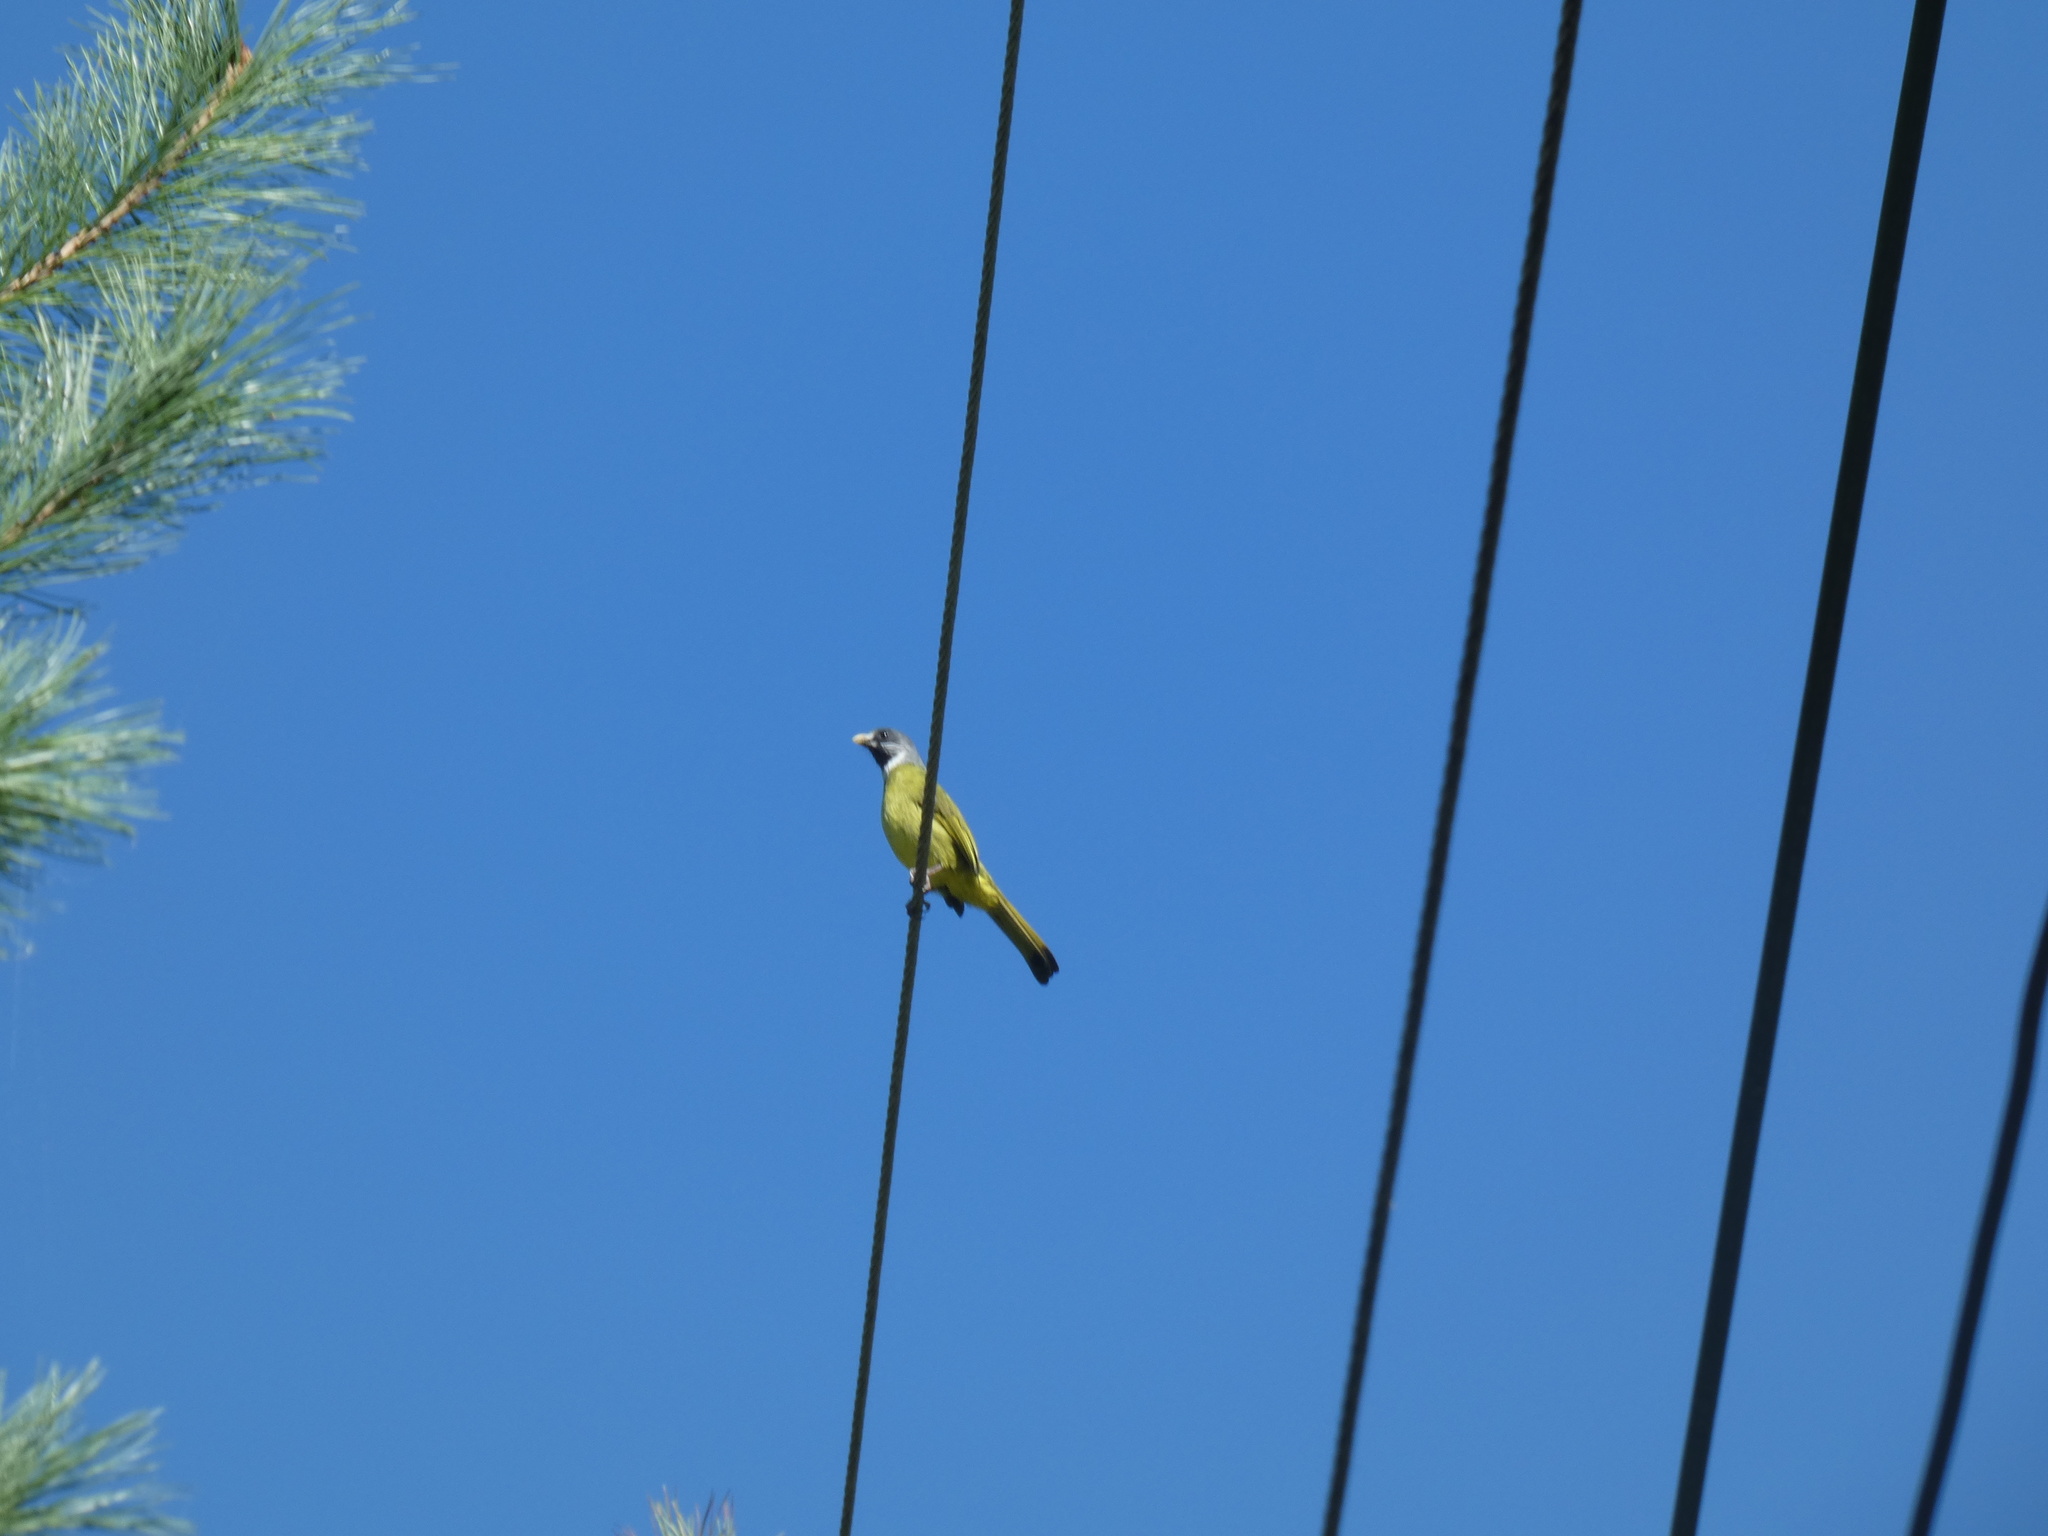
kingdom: Animalia
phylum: Chordata
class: Aves
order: Passeriformes
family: Pycnonotidae
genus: Spizixos
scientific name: Spizixos semitorques
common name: Collared finchbill
